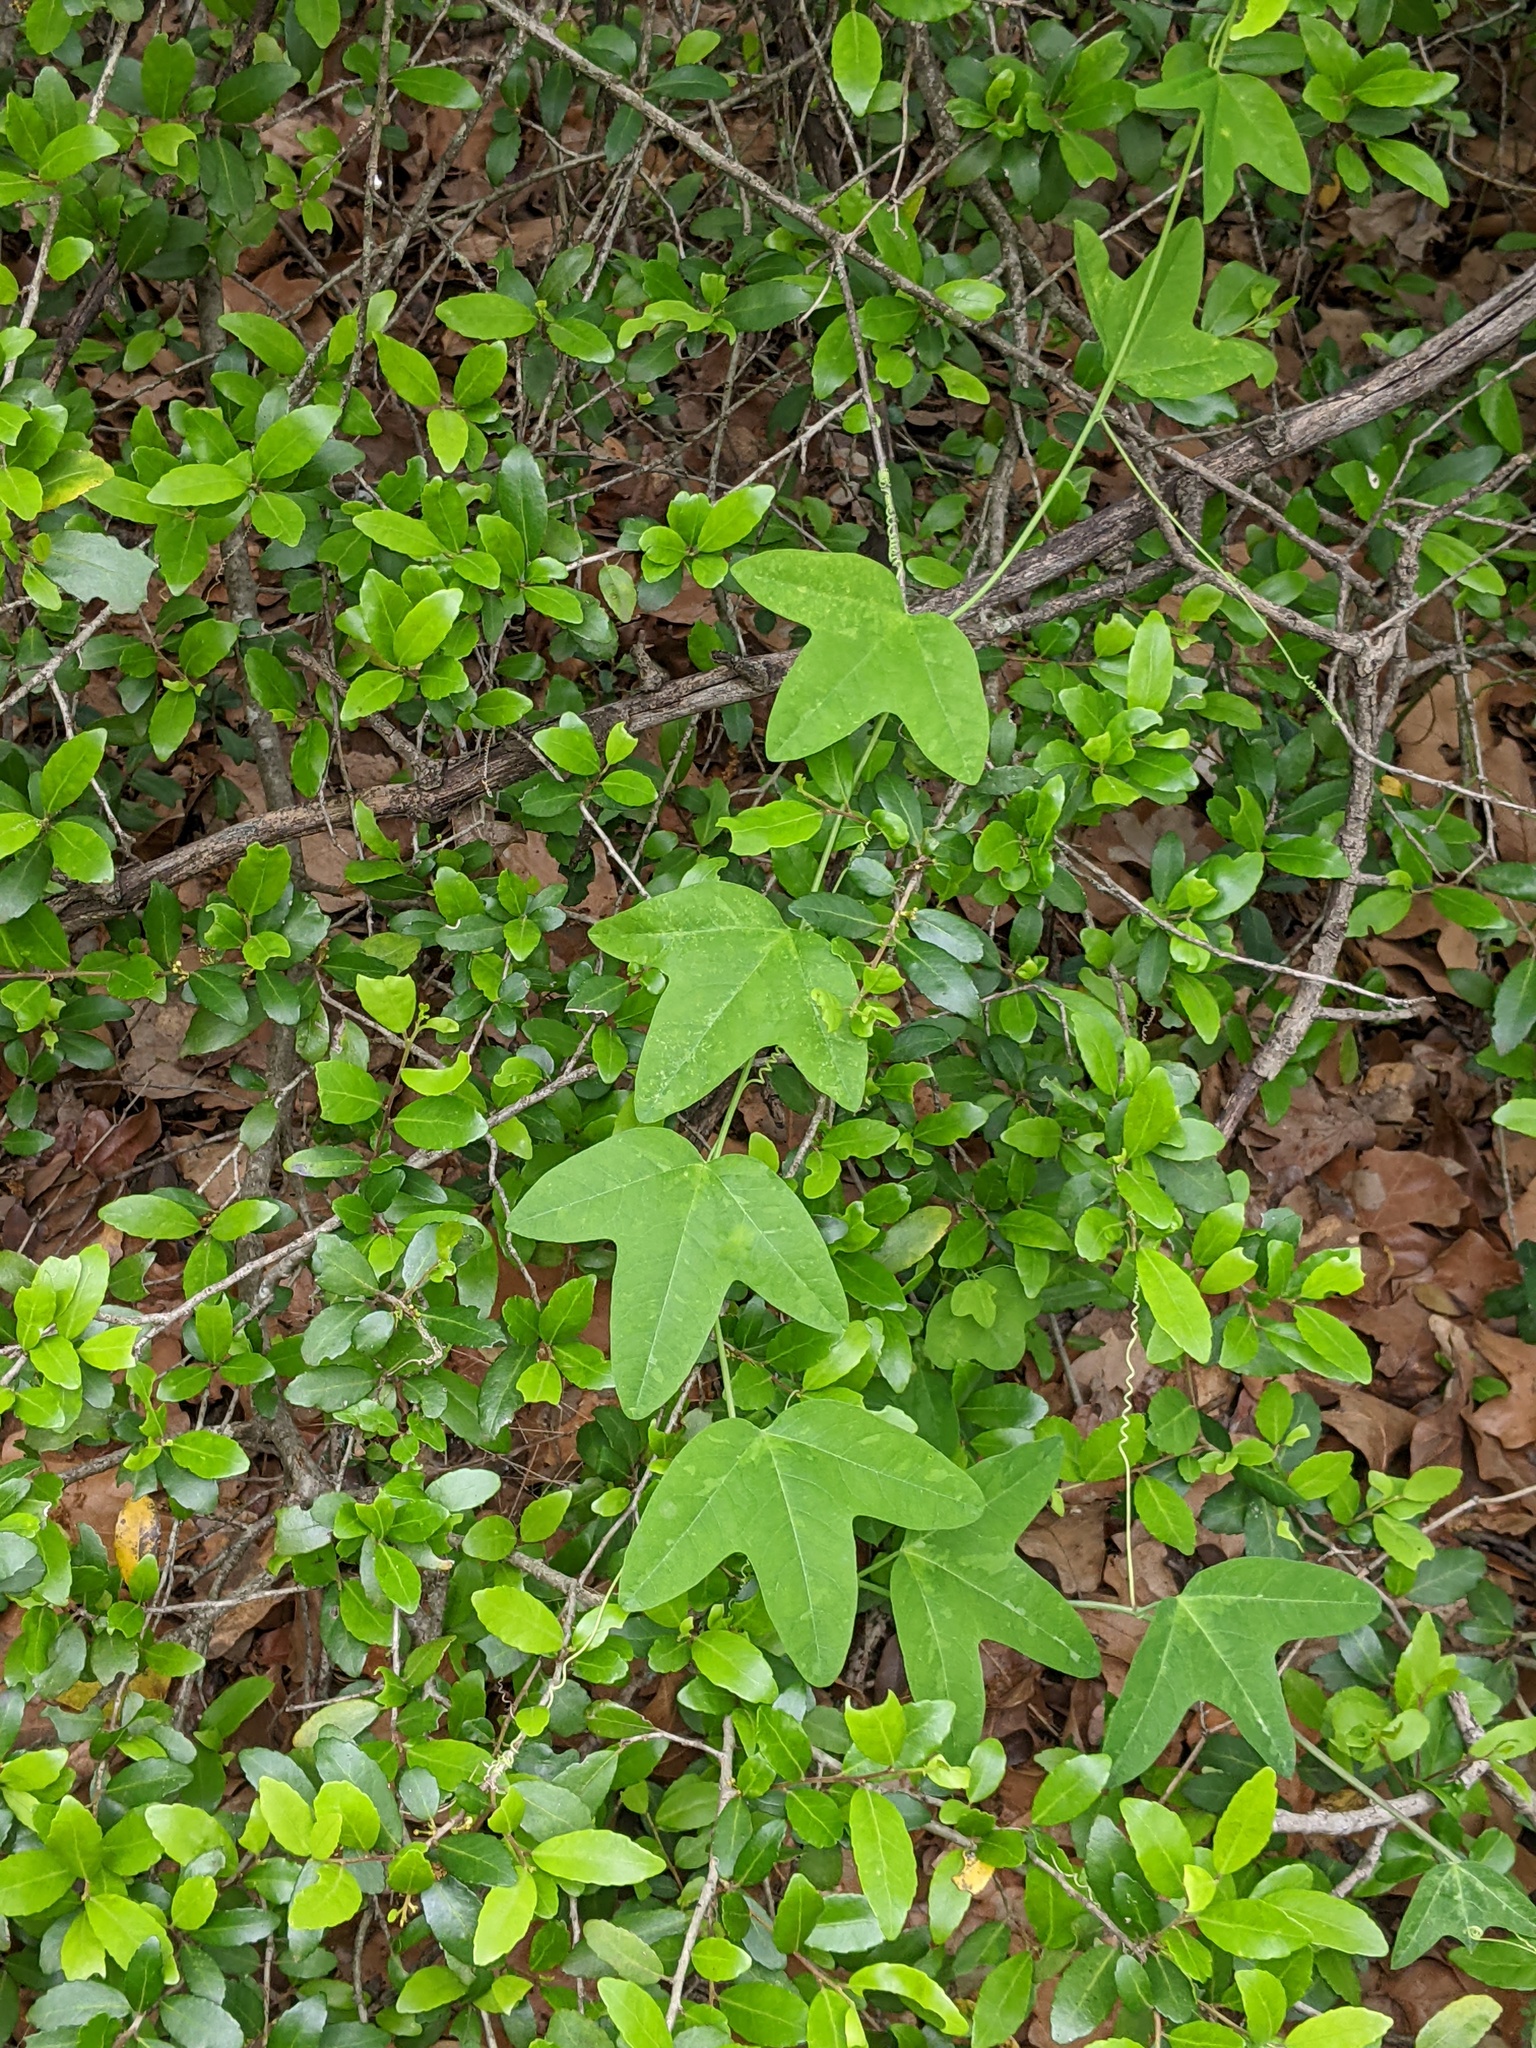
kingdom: Plantae
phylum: Tracheophyta
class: Magnoliopsida
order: Malpighiales
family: Passifloraceae
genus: Passiflora
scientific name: Passiflora lutea
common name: Yellow passionflower
